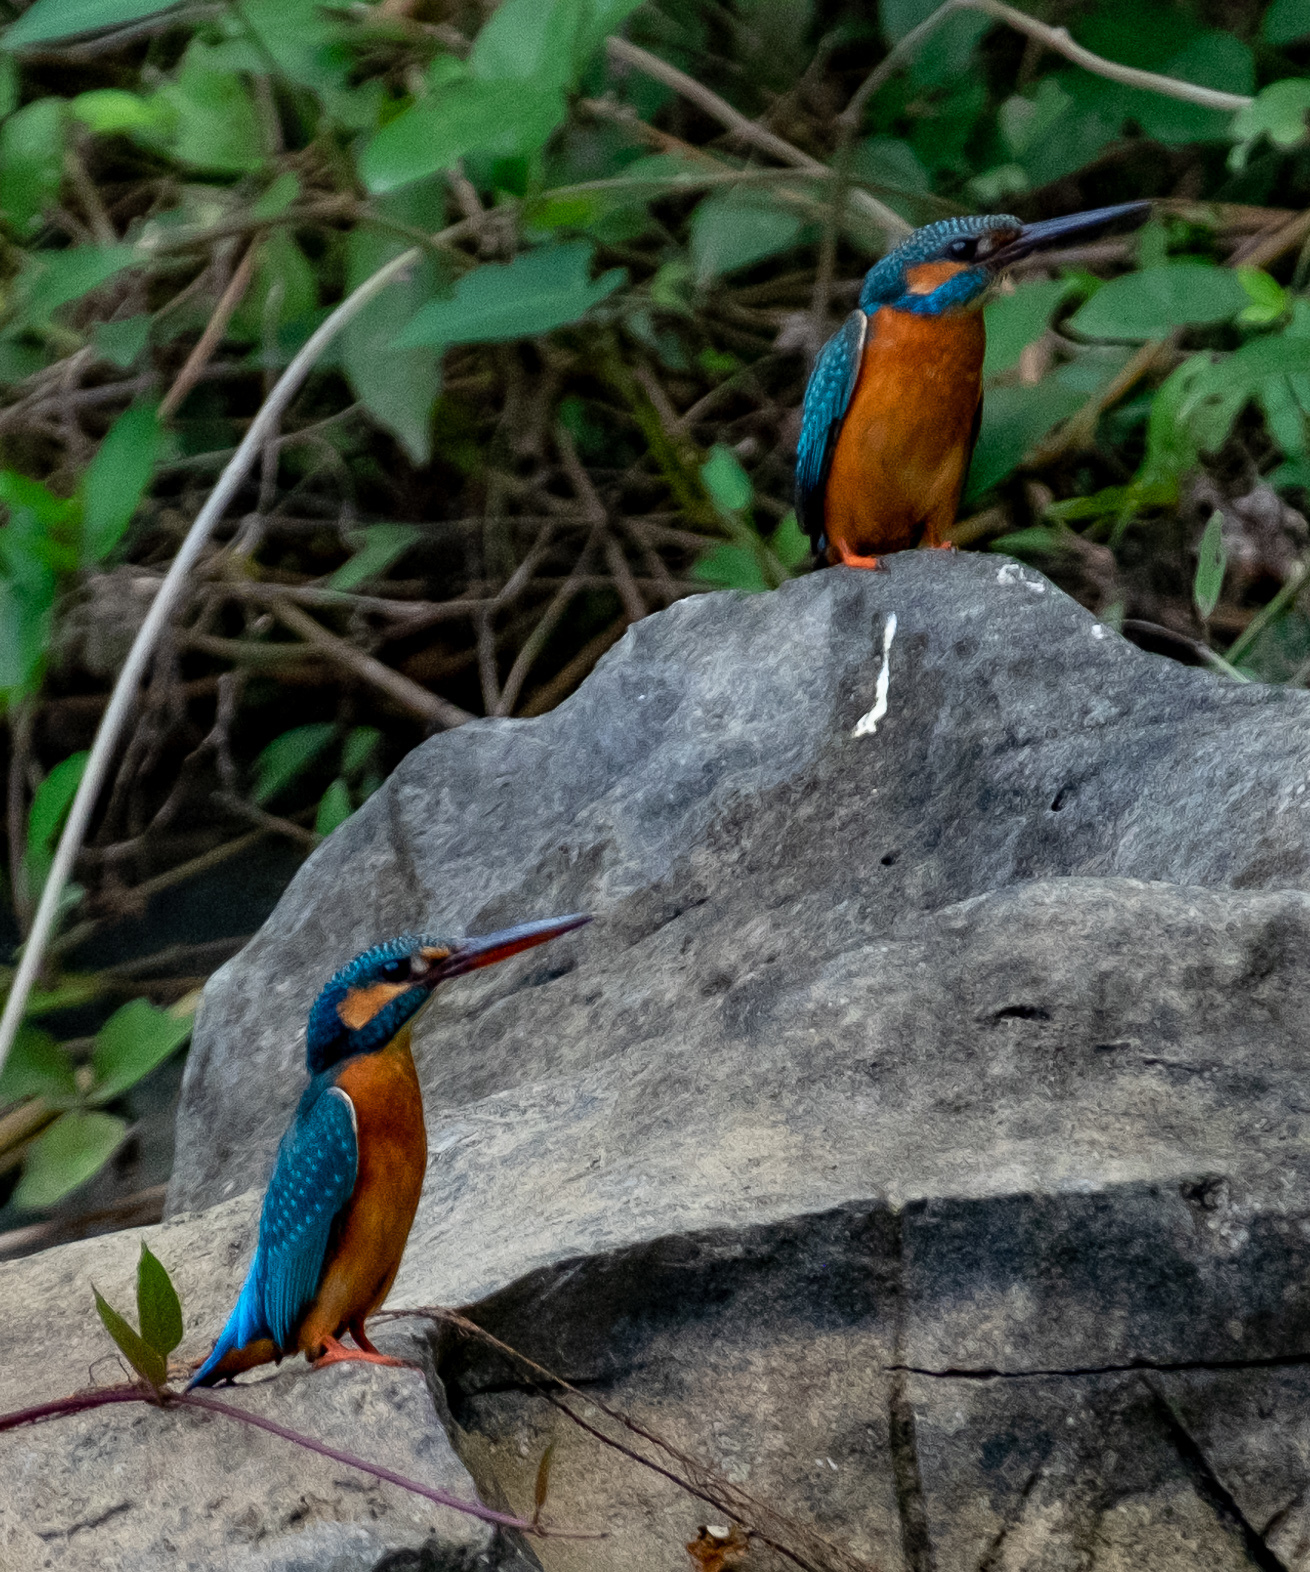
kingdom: Animalia
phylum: Chordata
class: Aves
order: Coraciiformes
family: Alcedinidae
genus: Alcedo
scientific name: Alcedo atthis
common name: Common kingfisher
